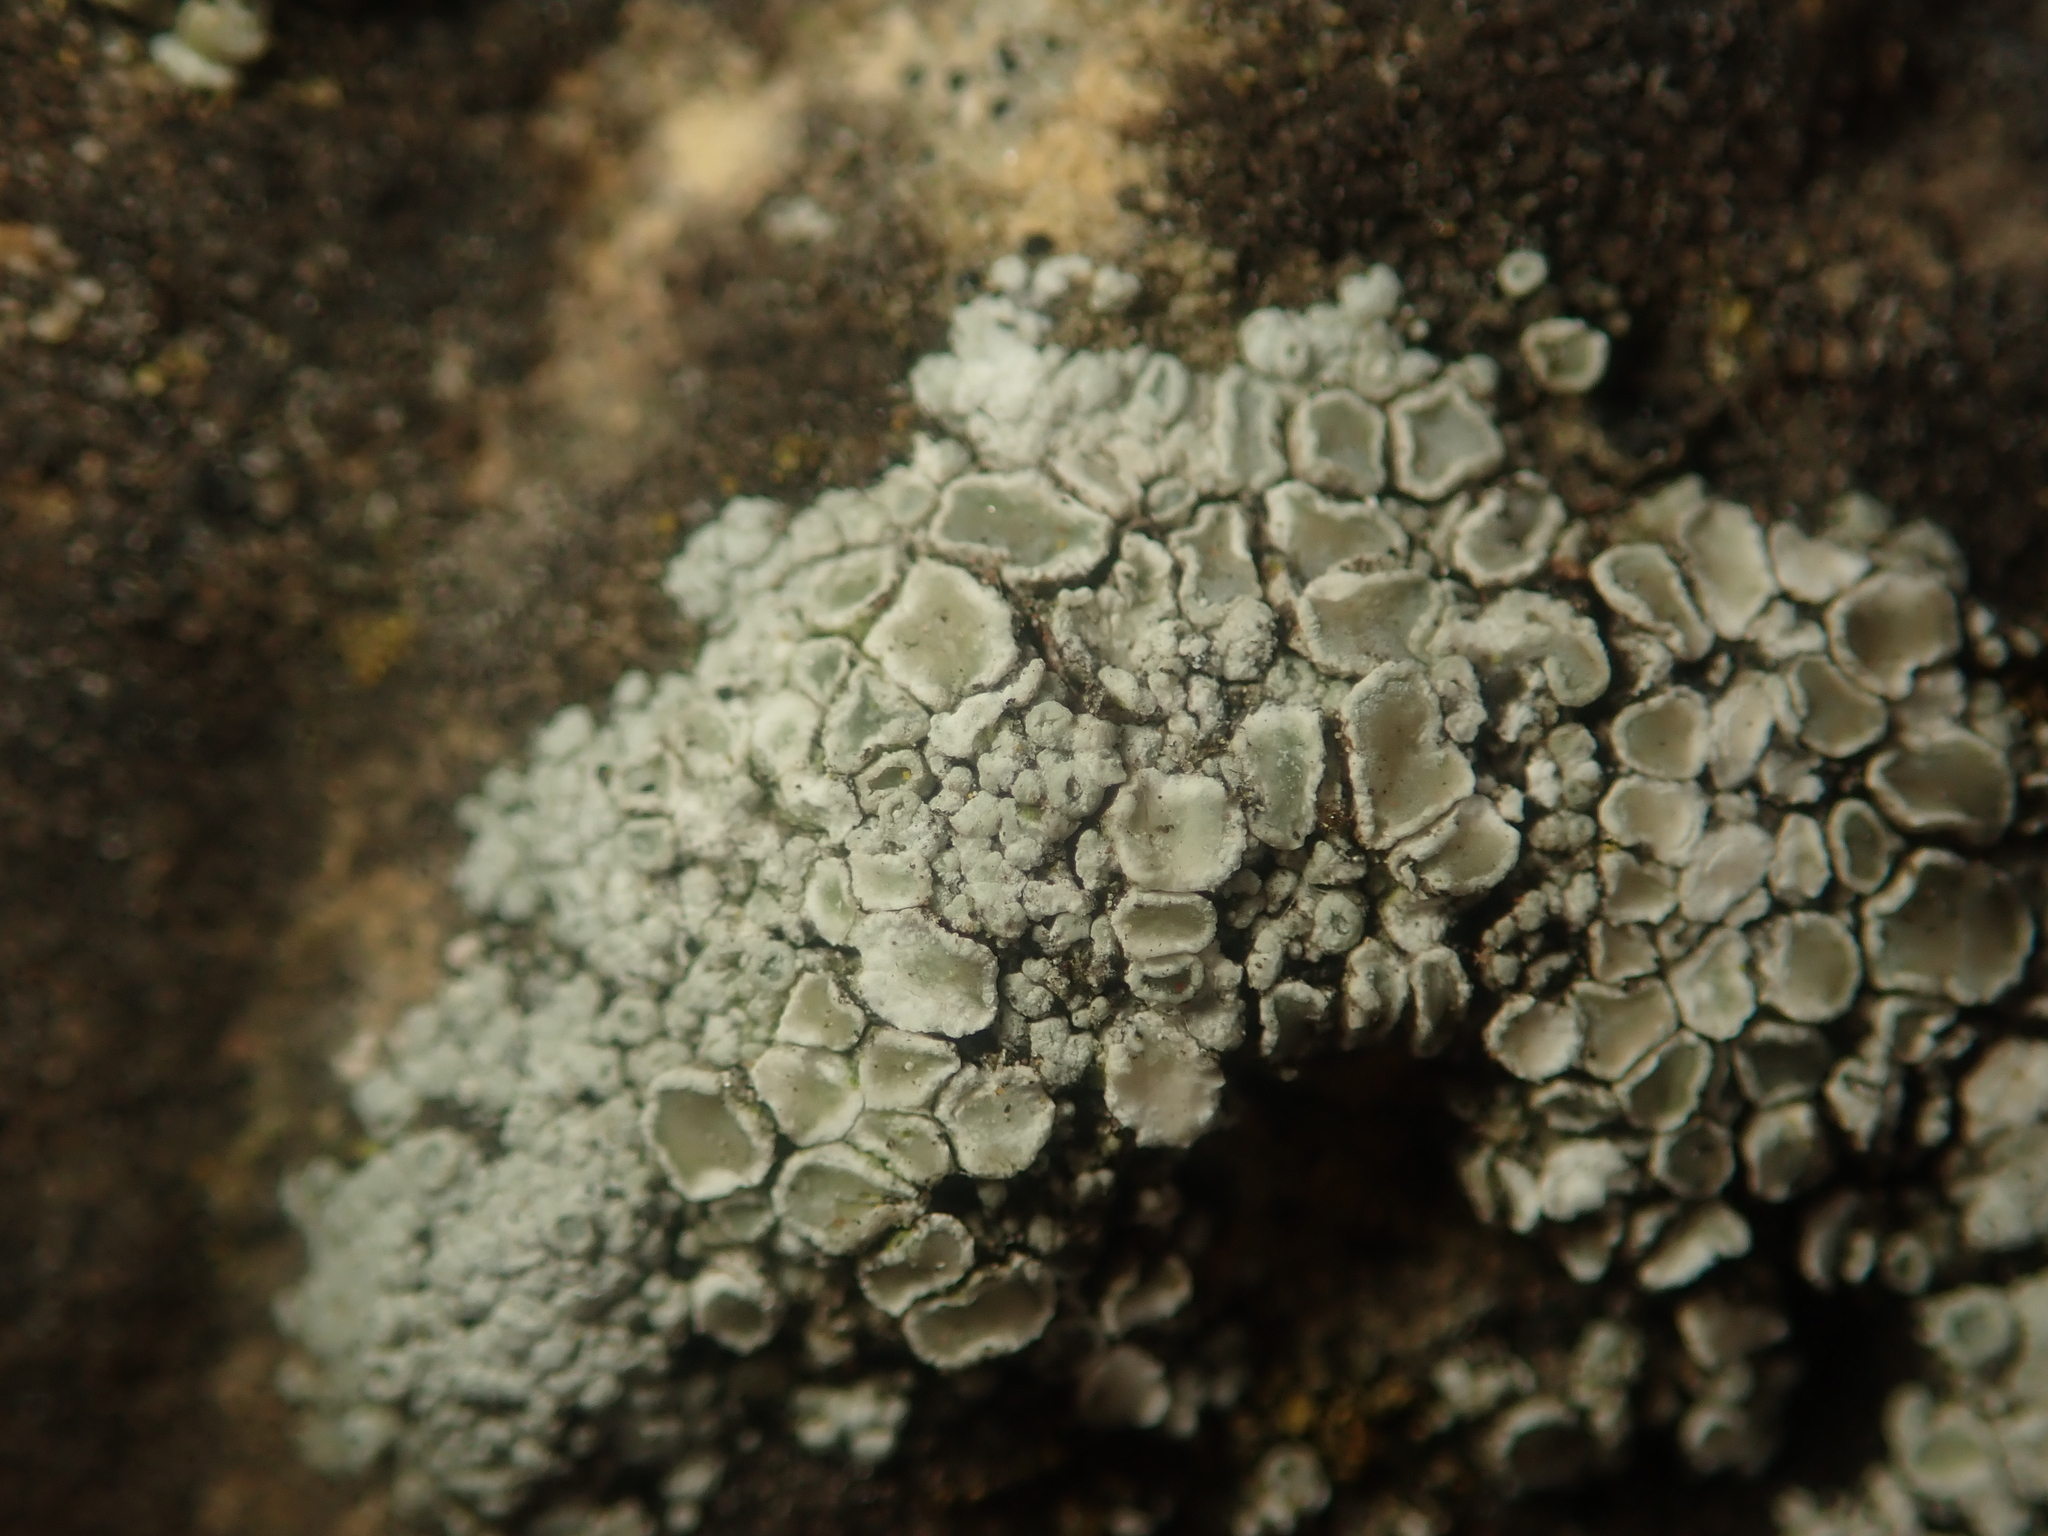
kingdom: Fungi
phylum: Ascomycota
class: Lecanoromycetes
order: Lecanorales
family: Lecanoraceae
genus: Polyozosia
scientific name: Polyozosia albescens
